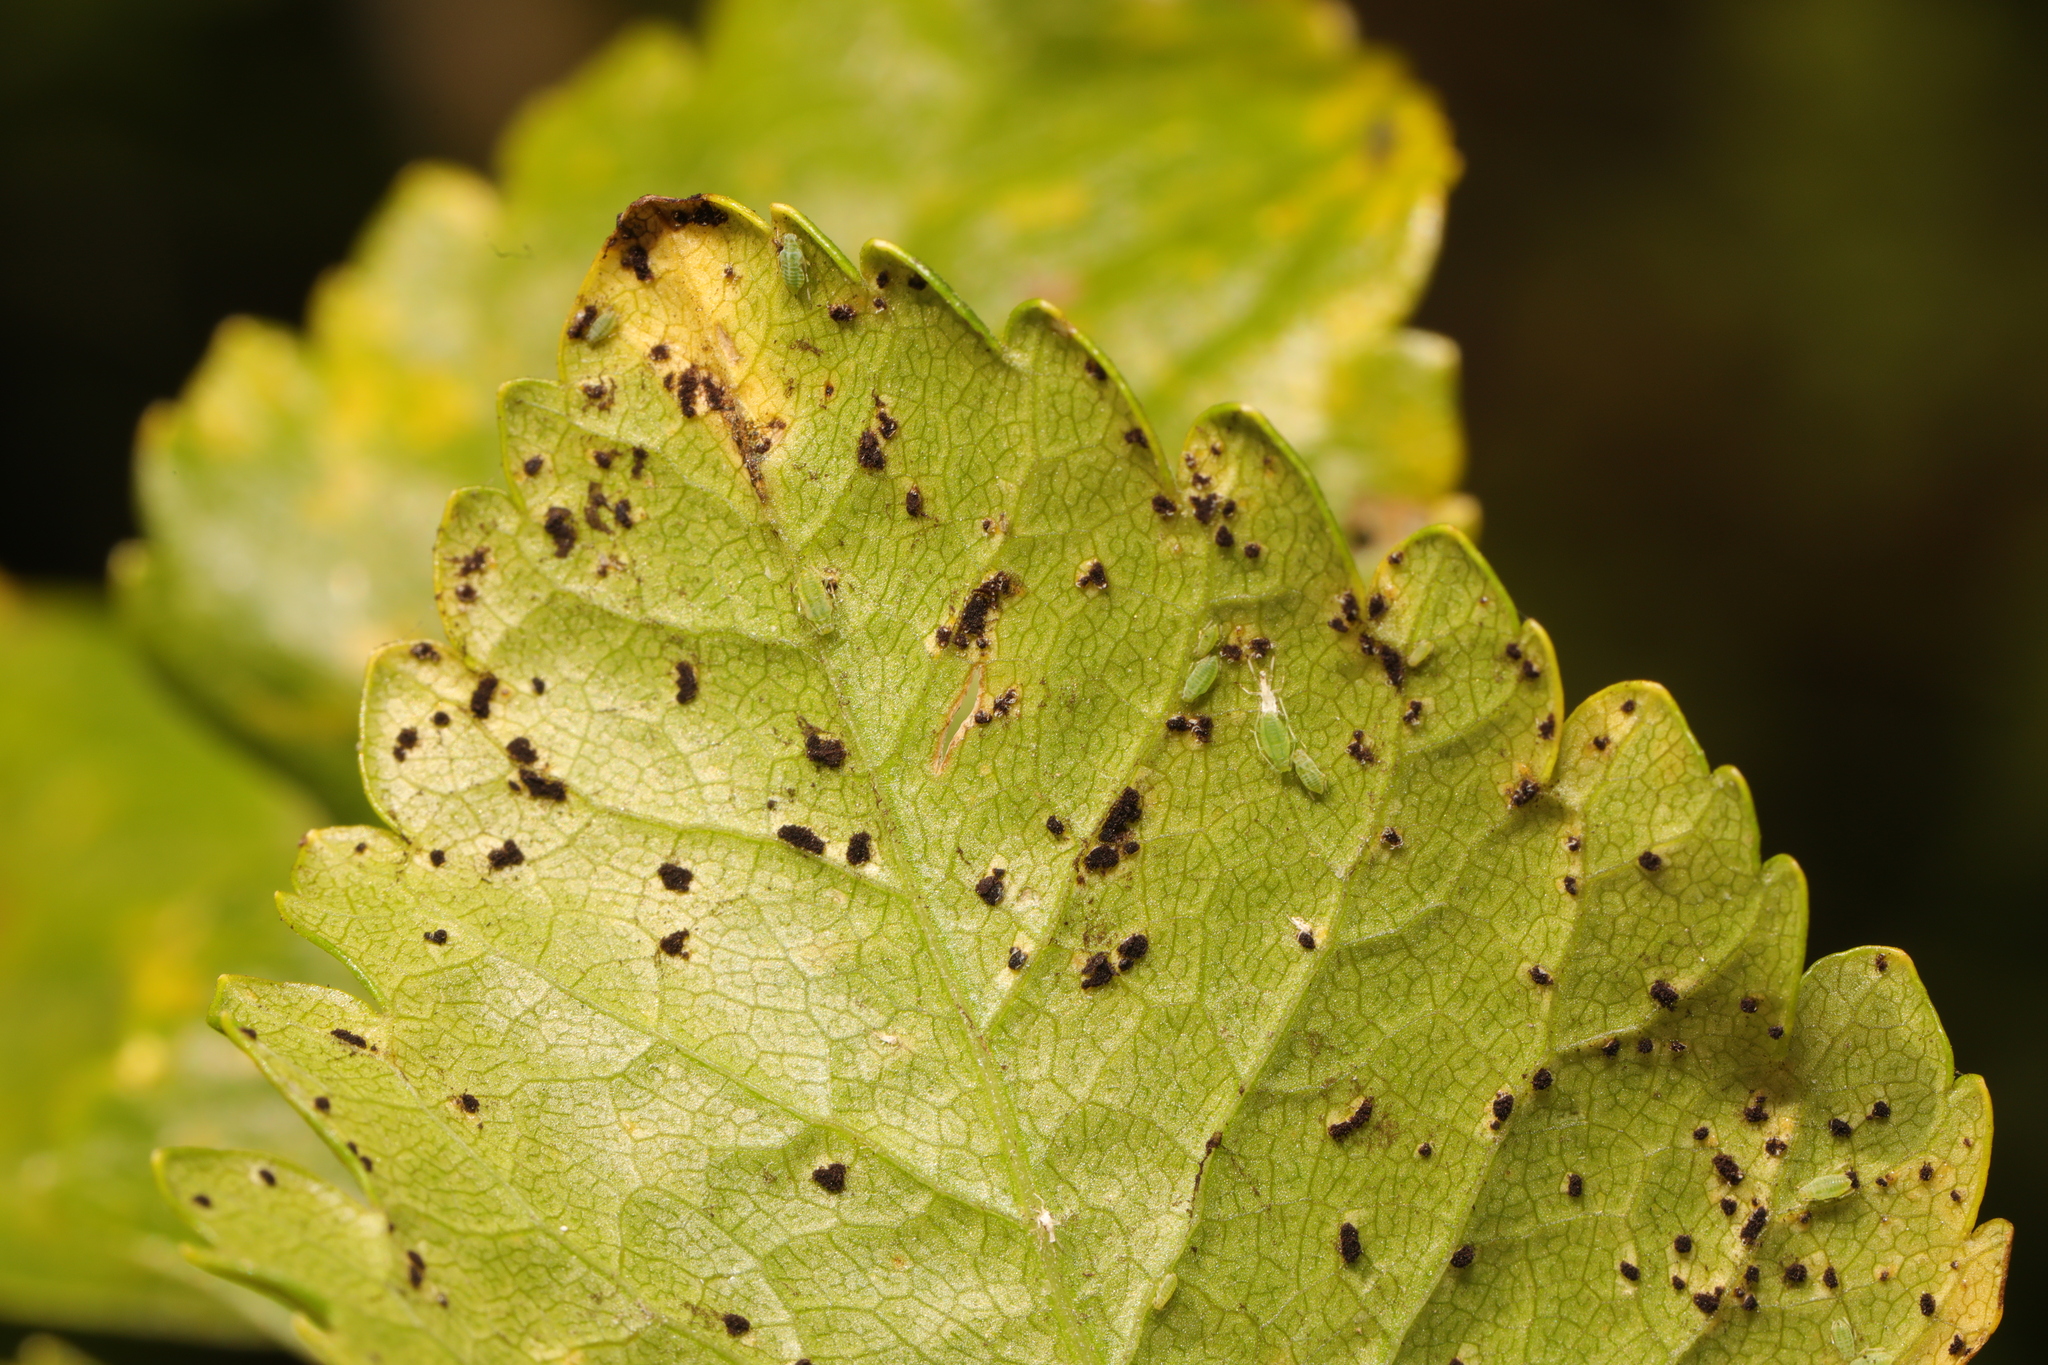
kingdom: Fungi
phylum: Basidiomycota
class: Pucciniomycetes
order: Pucciniales
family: Pucciniaceae
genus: Puccinia
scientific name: Puccinia smyrnii
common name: Alexanders rust
